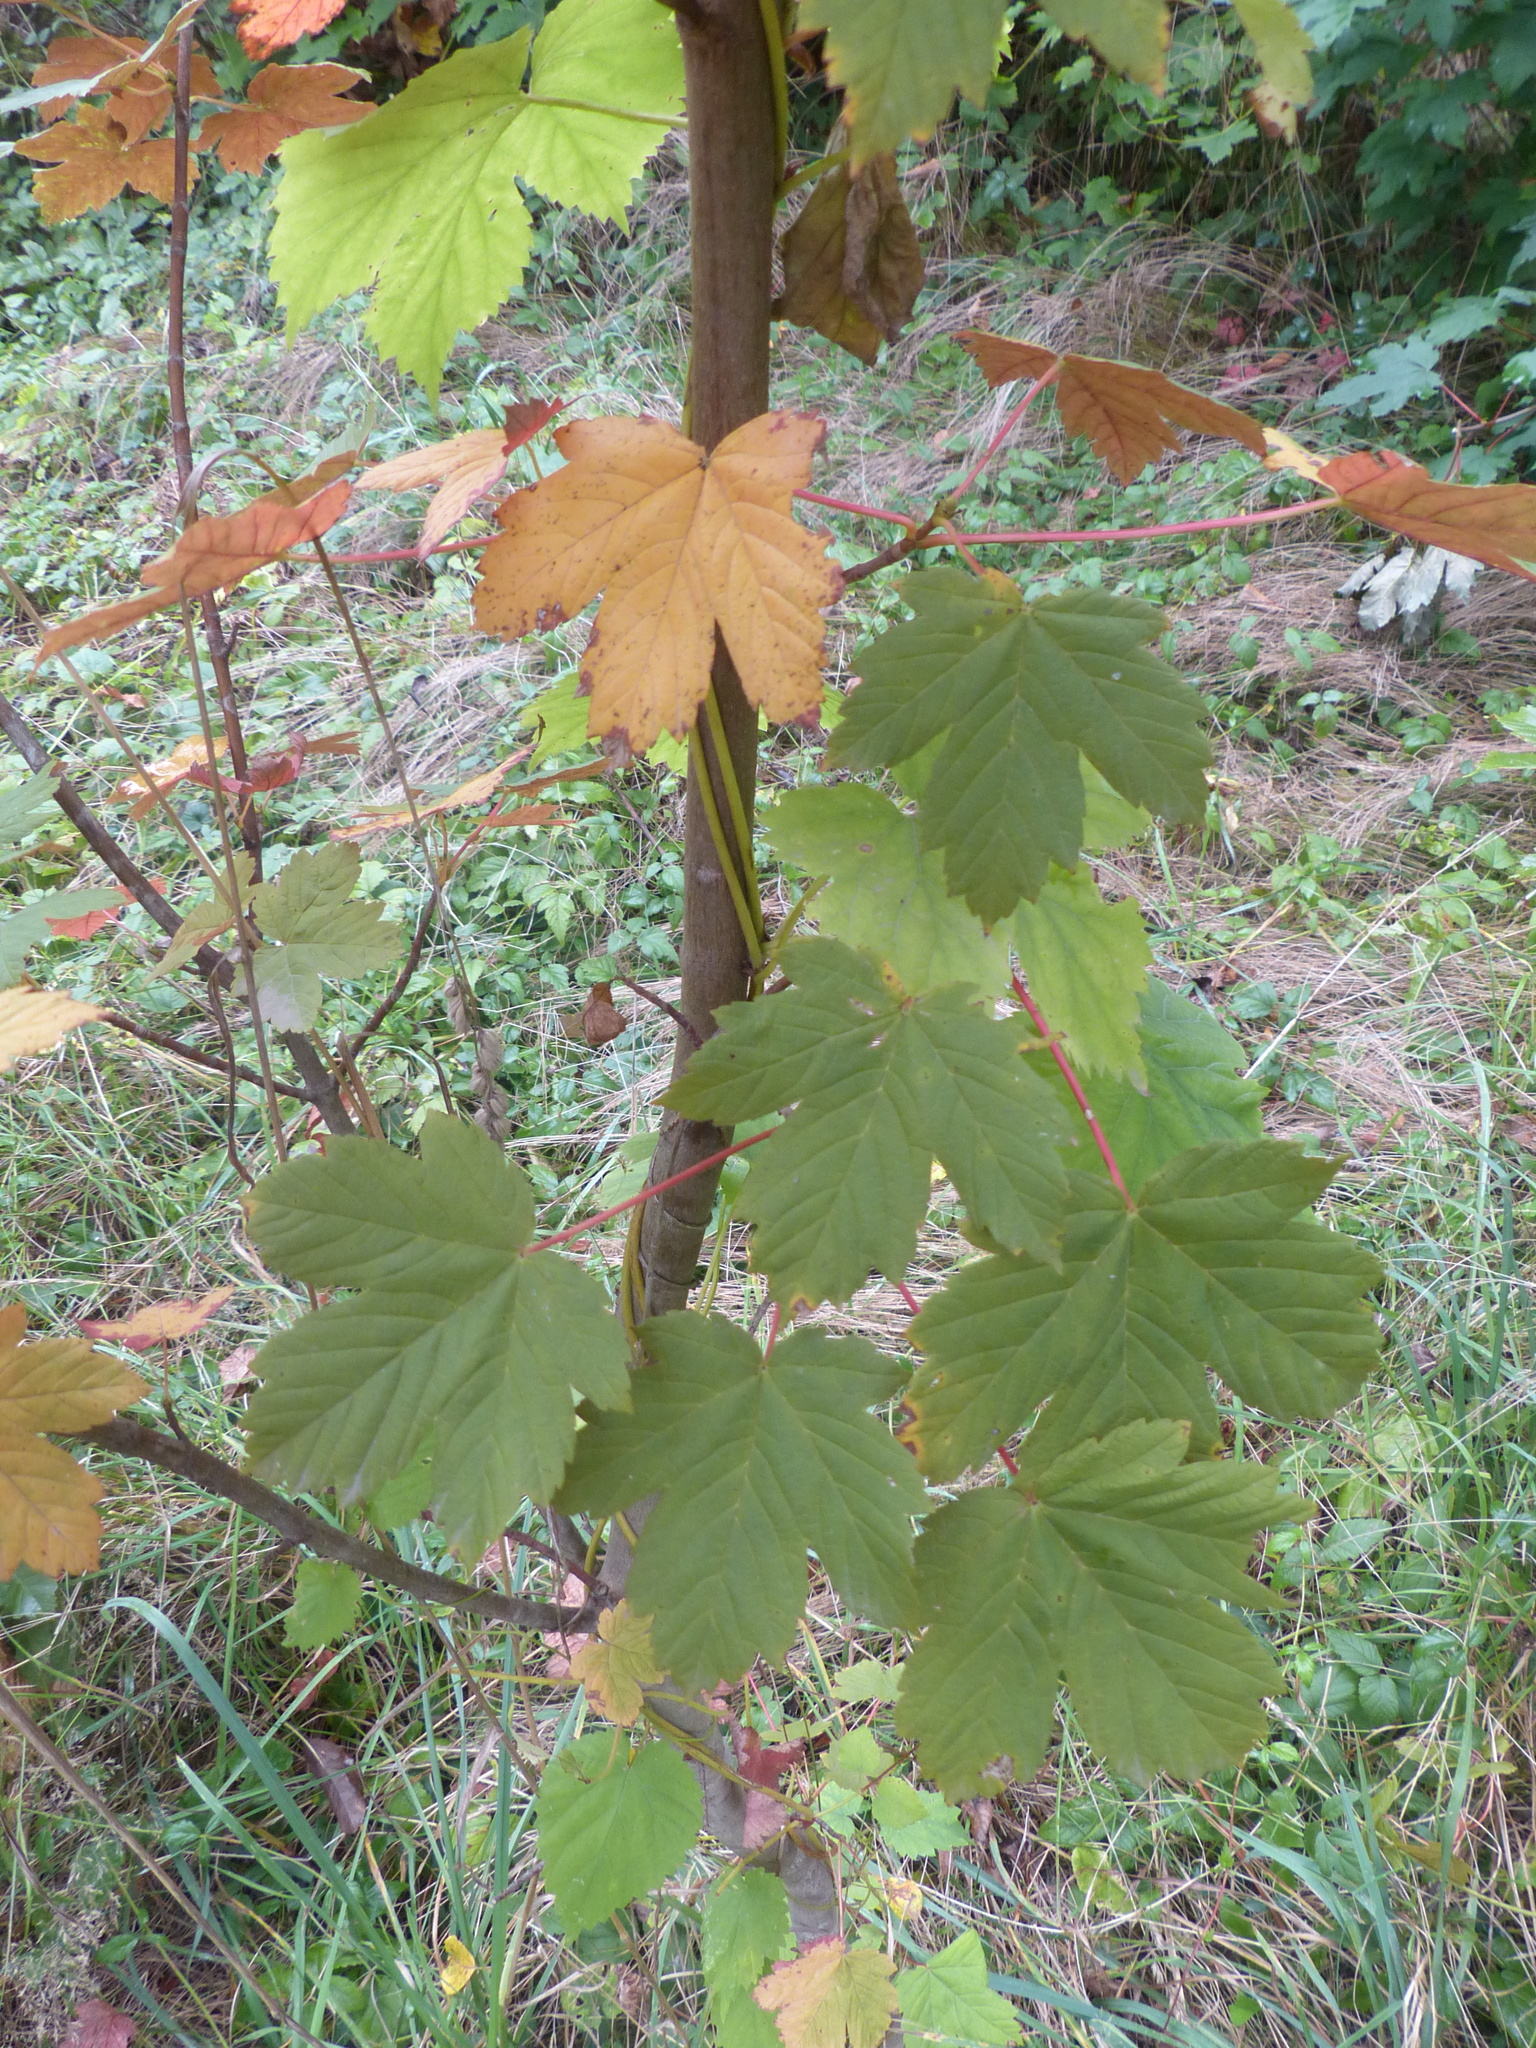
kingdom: Plantae
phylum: Tracheophyta
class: Magnoliopsida
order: Sapindales
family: Sapindaceae
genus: Acer
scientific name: Acer pseudoplatanus
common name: Sycamore
